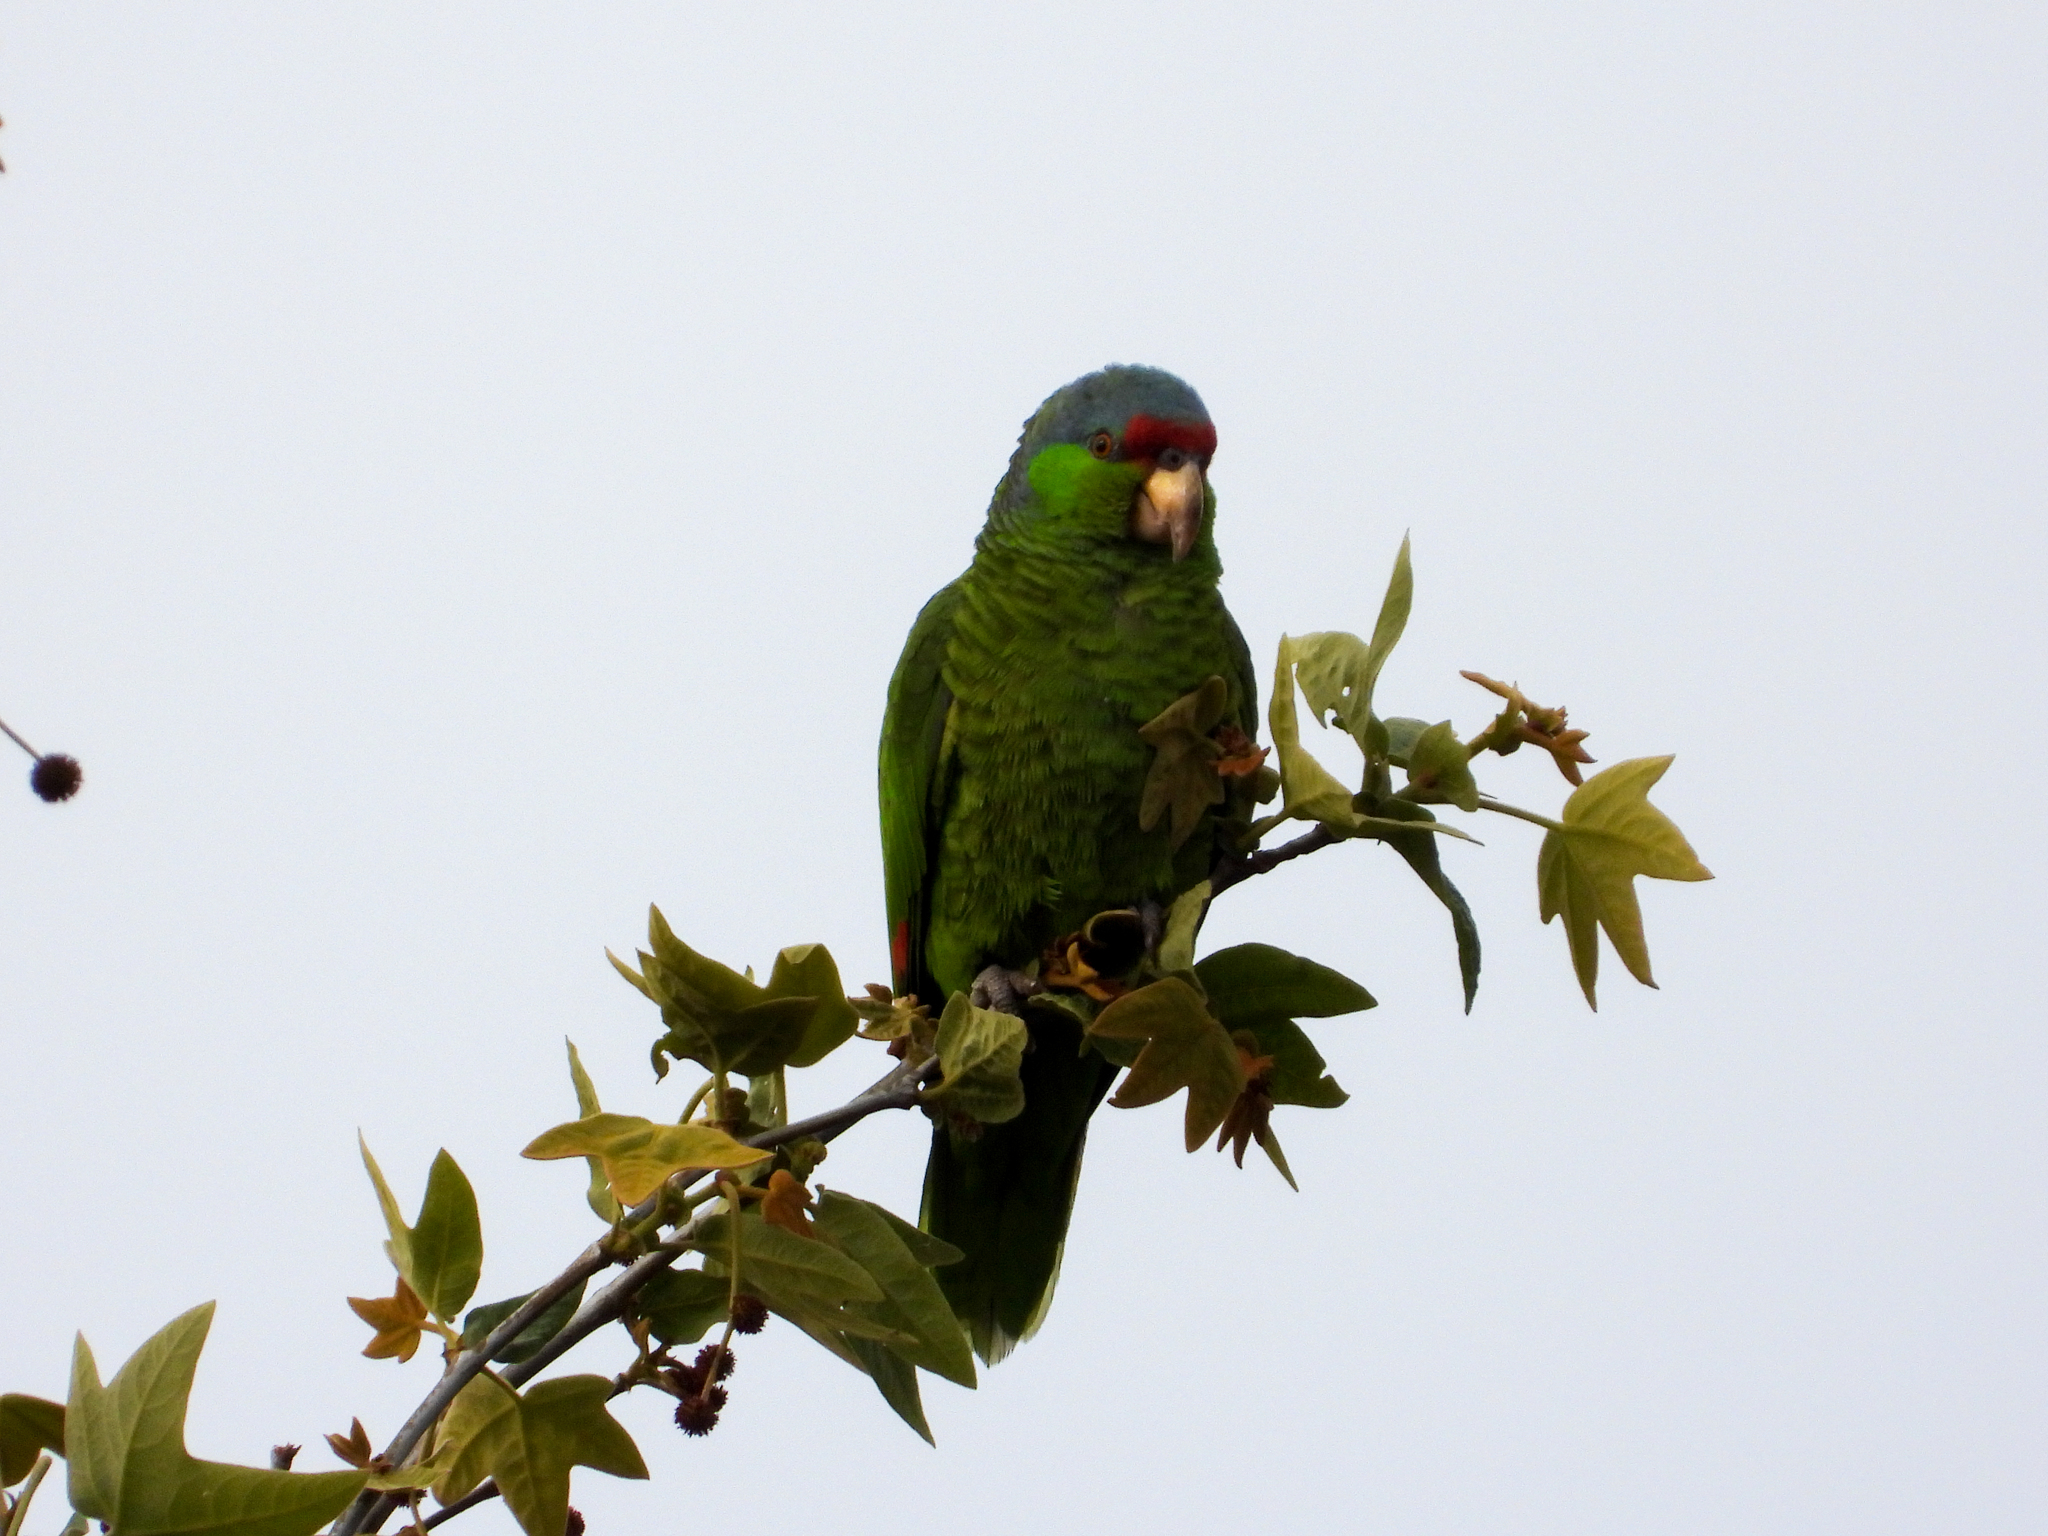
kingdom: Animalia
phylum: Chordata
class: Aves
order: Psittaciformes
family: Psittacidae
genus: Amazona
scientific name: Amazona finschi
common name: Lilac-crowned amazon
